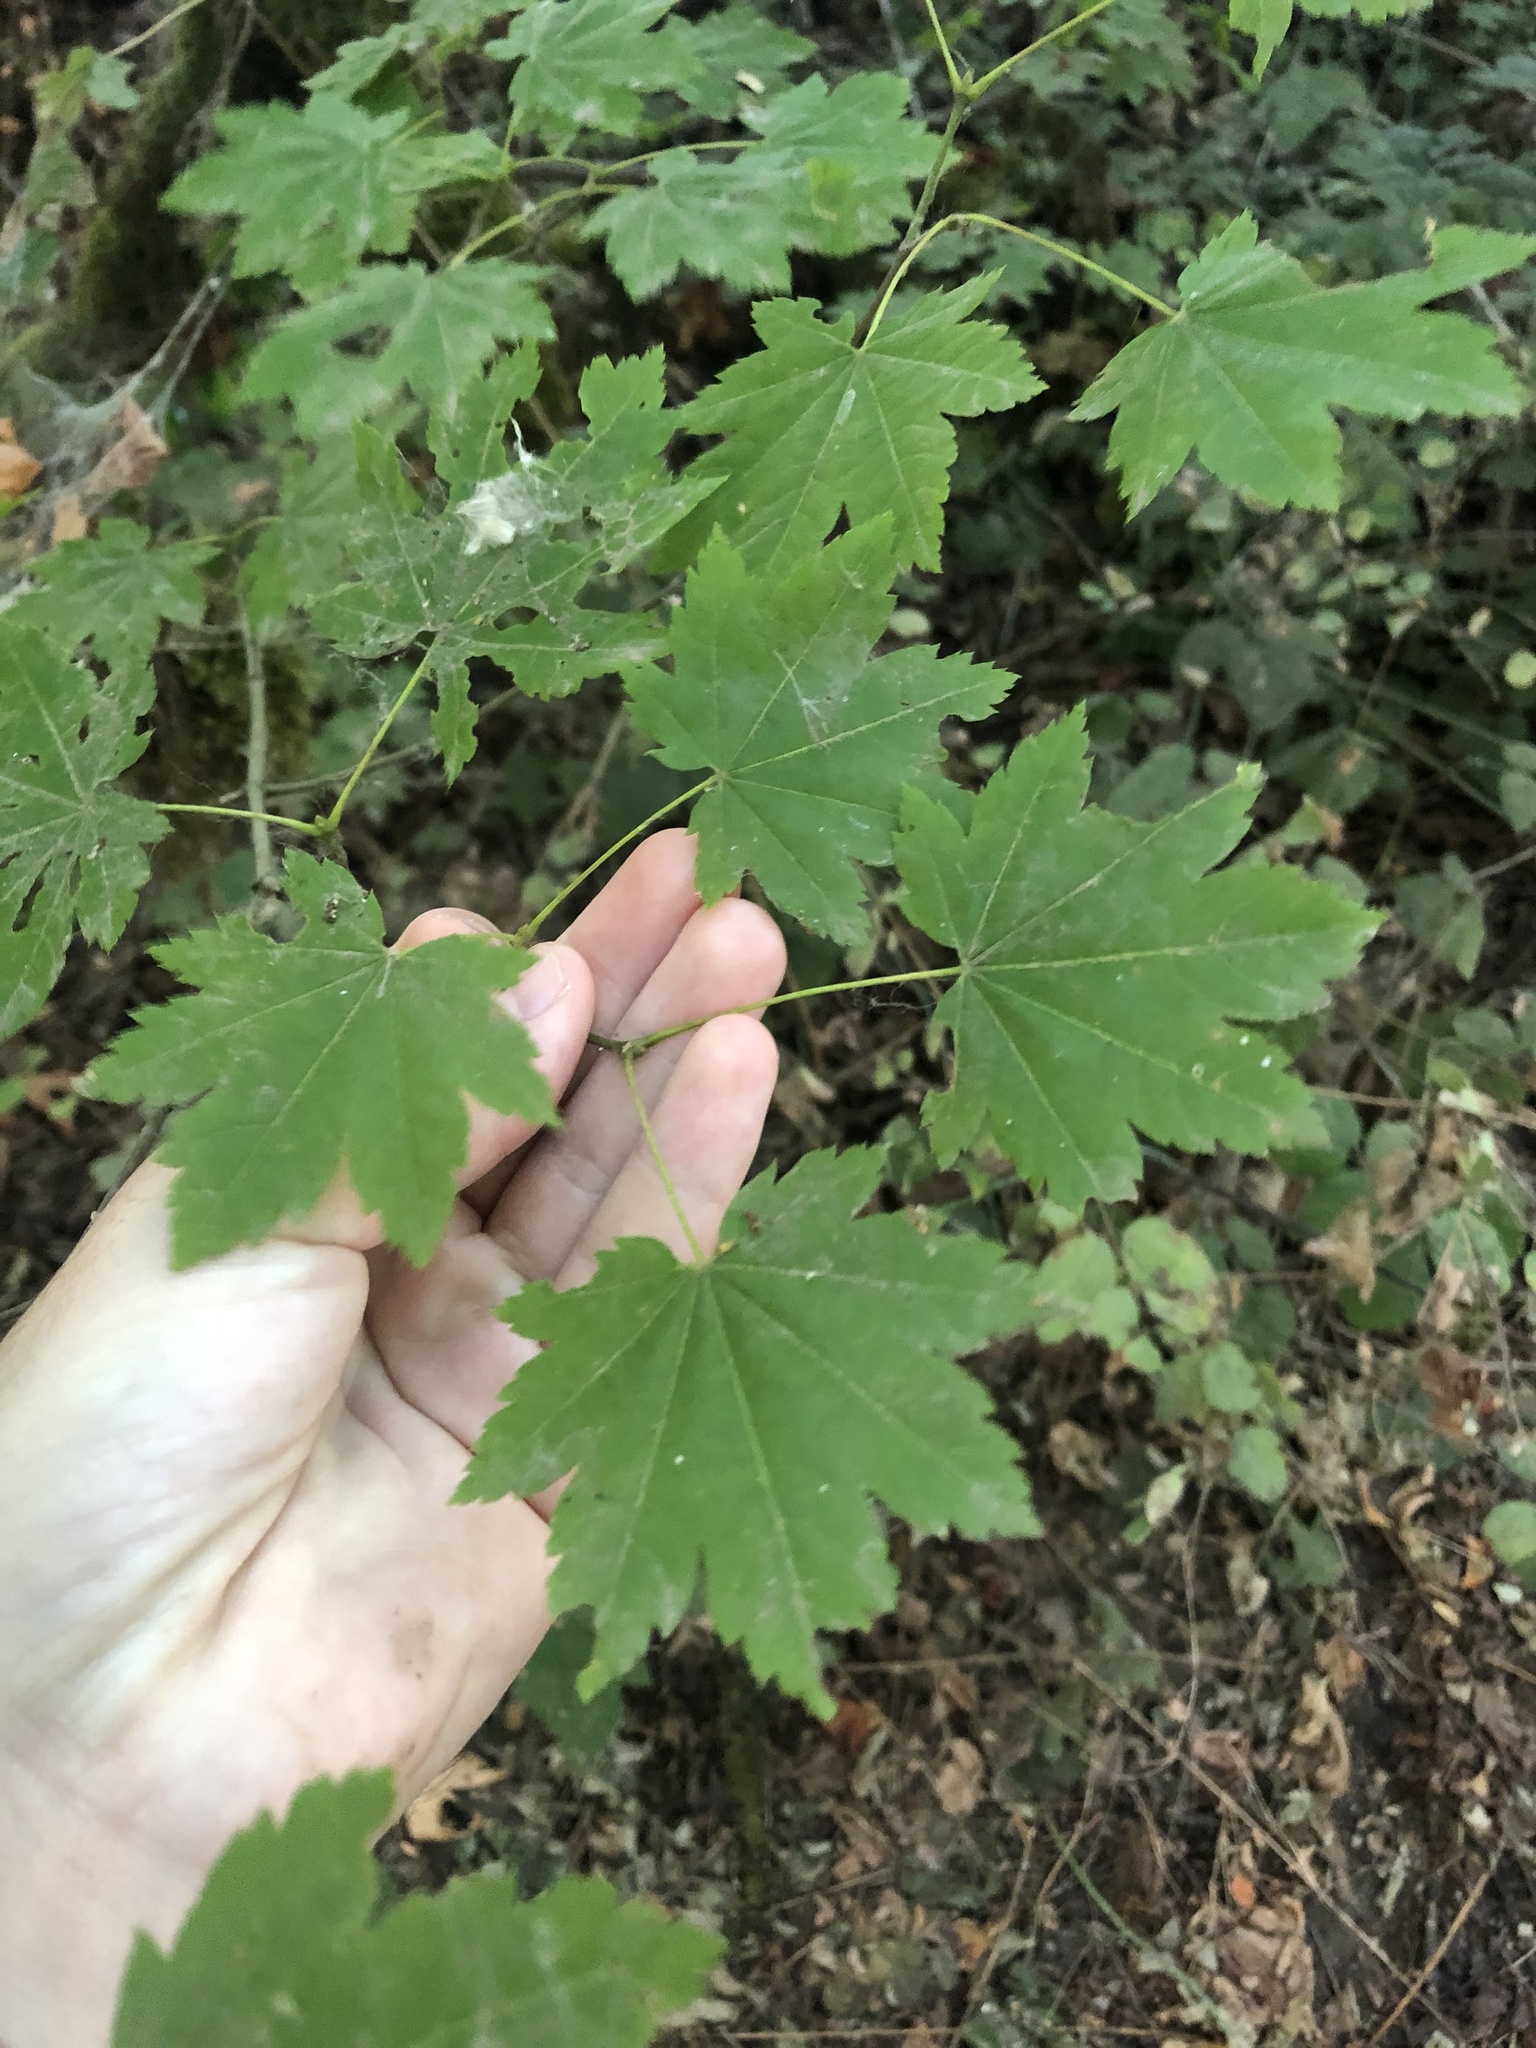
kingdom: Plantae
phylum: Tracheophyta
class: Magnoliopsida
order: Sapindales
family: Sapindaceae
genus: Acer
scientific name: Acer circinatum
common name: Vine maple
